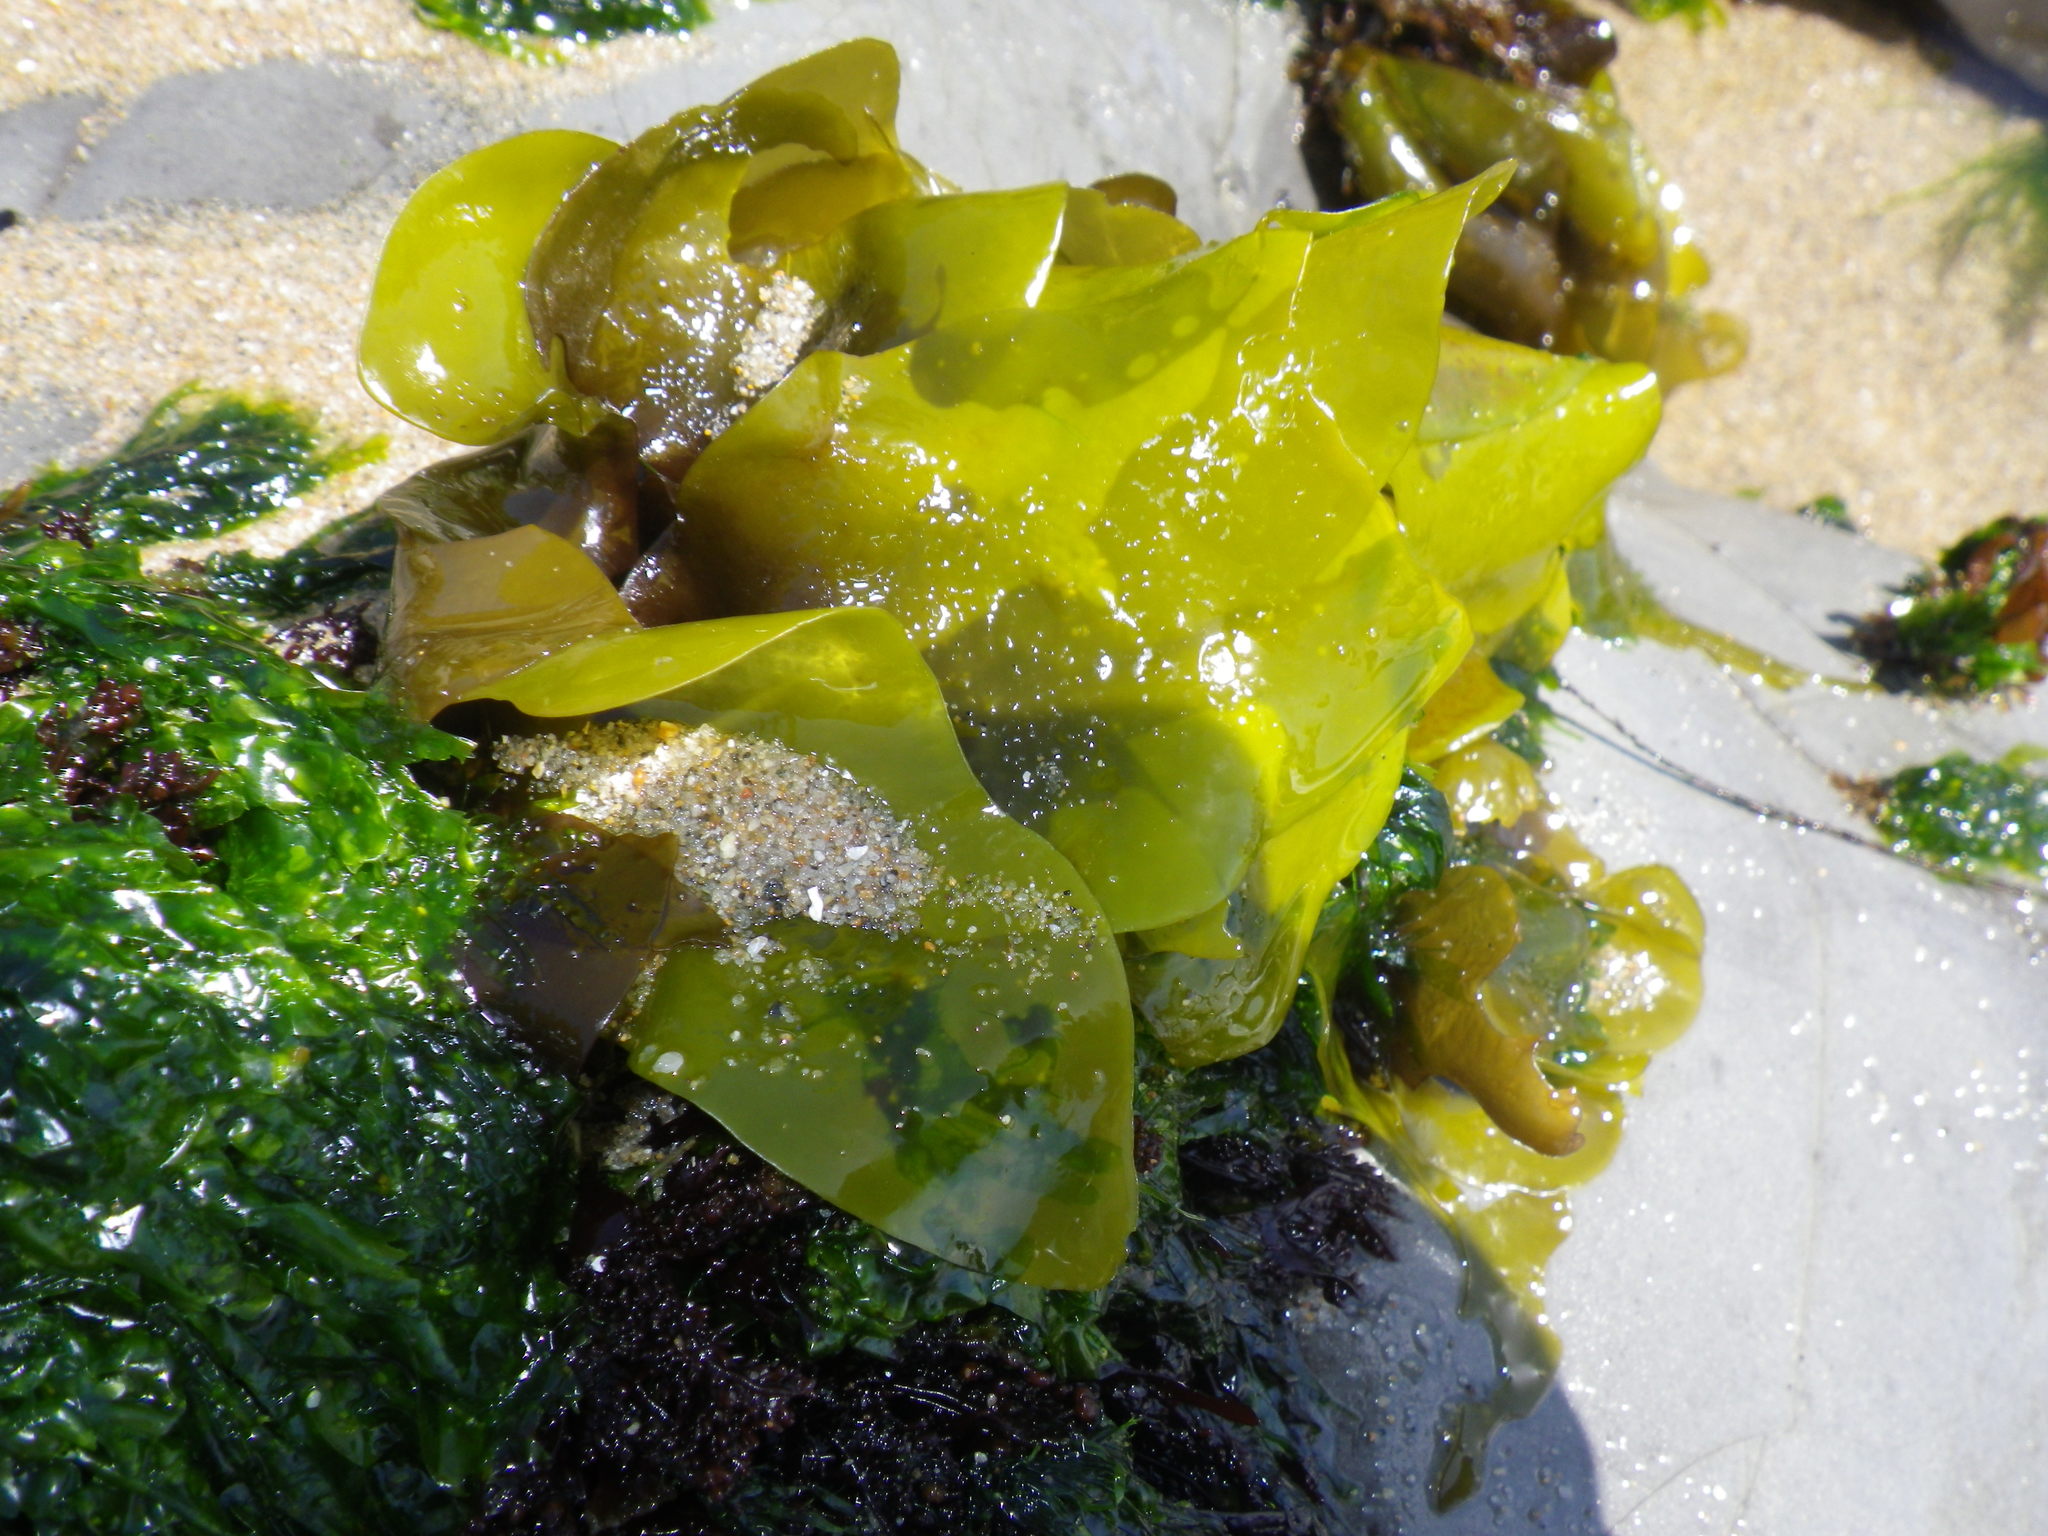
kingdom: Plantae
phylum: Rhodophyta
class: Florideophyceae
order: Gigartinales
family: Gigartinaceae
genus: Mazzaella
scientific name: Mazzaella flaccida
